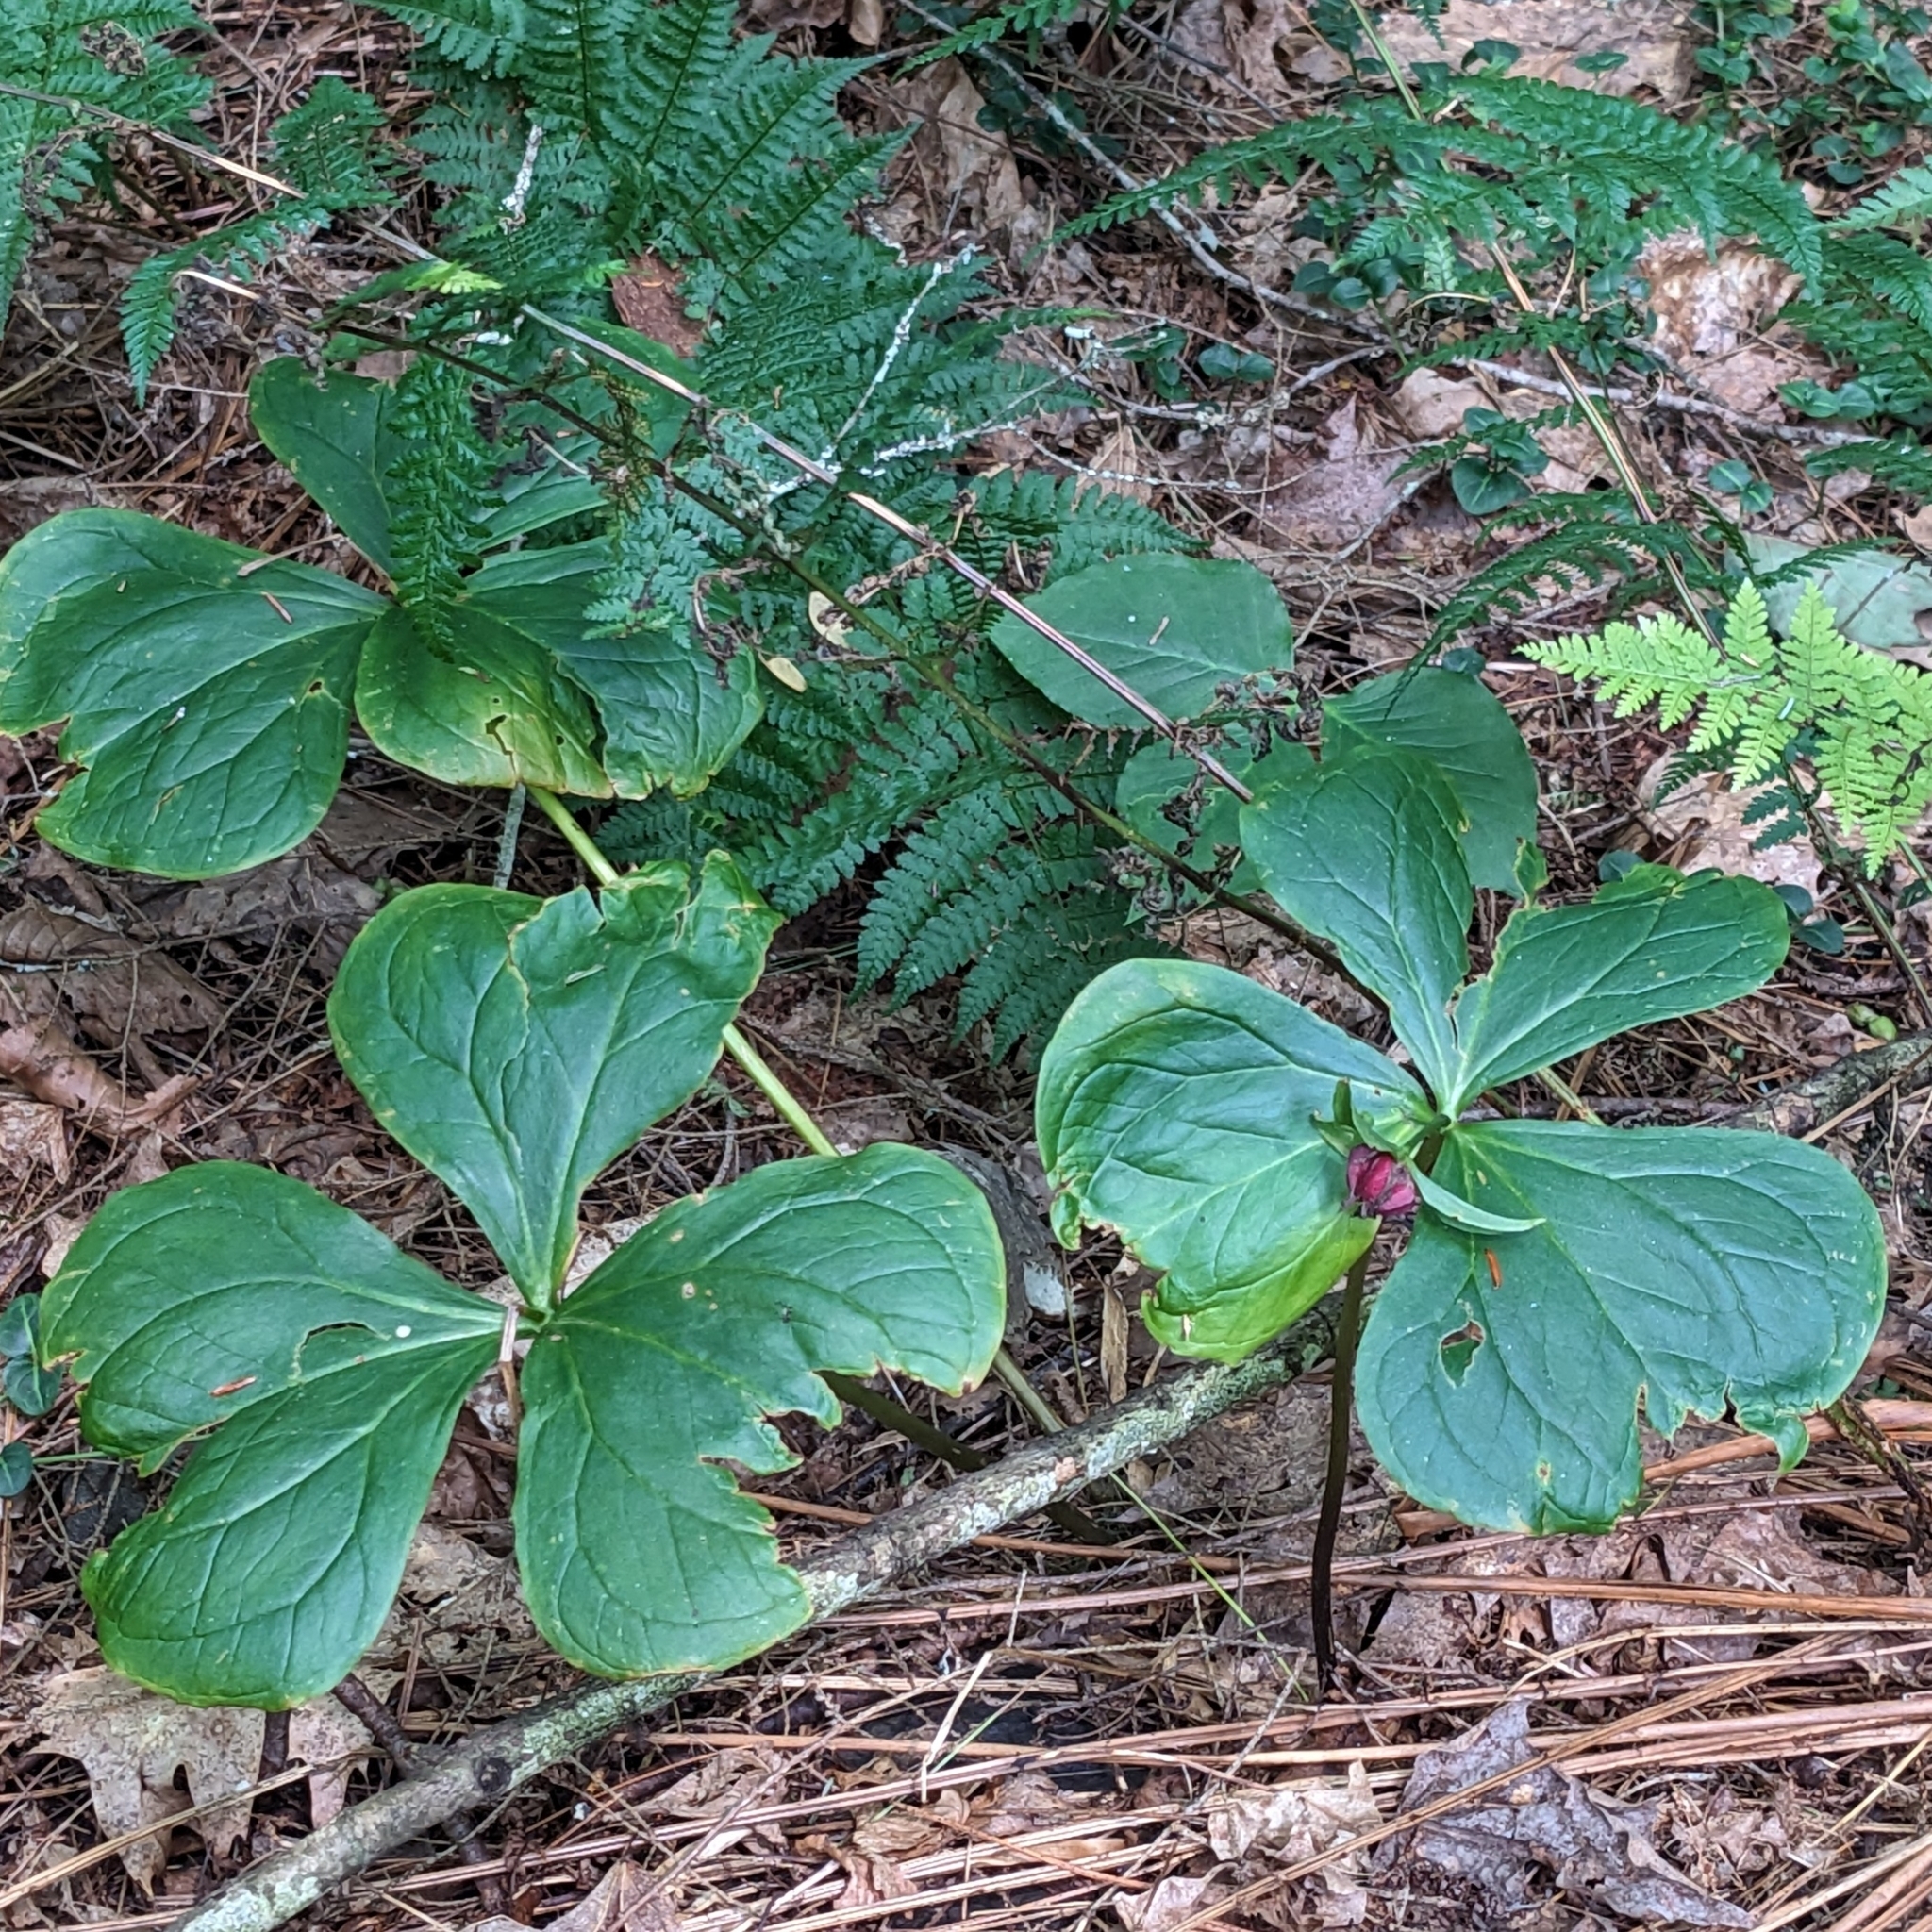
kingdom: Plantae
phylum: Tracheophyta
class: Liliopsida
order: Liliales
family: Melanthiaceae
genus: Trillium
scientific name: Trillium erectum
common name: Purple trillium
